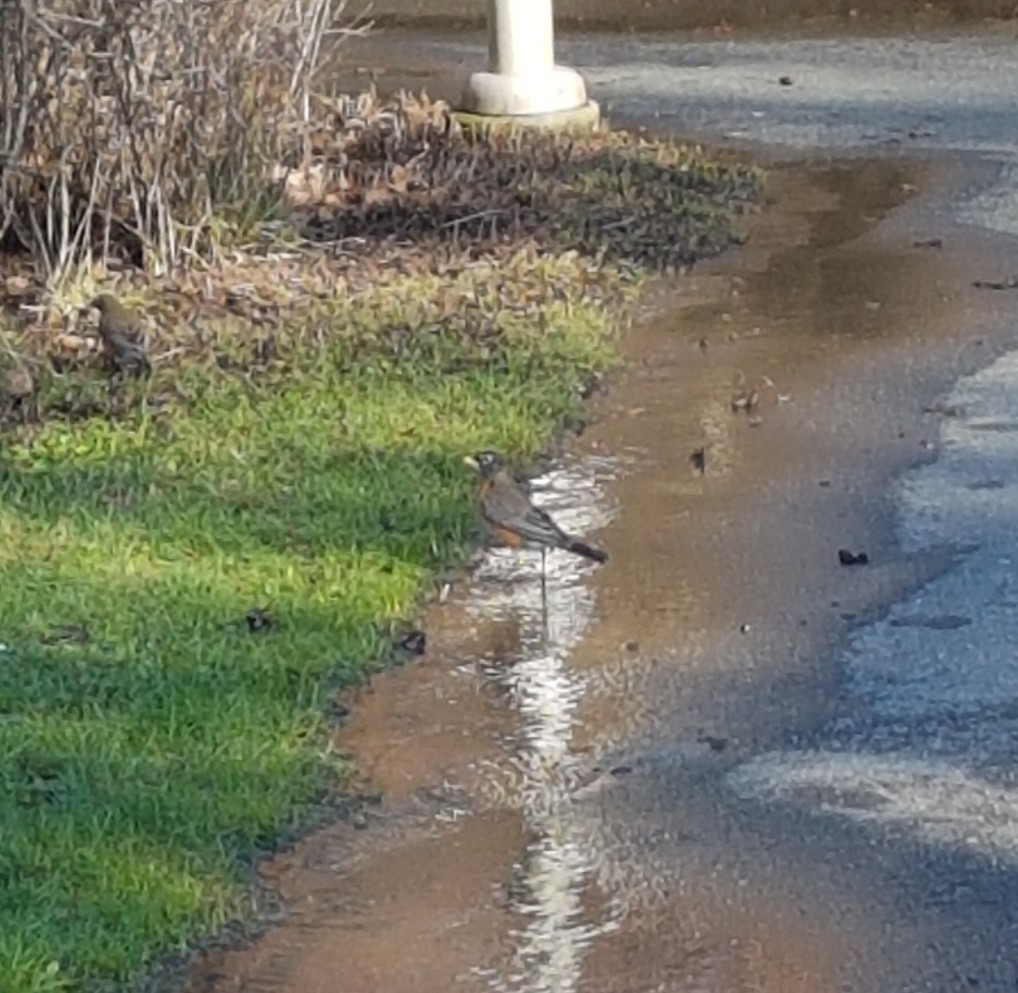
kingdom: Animalia
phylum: Chordata
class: Aves
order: Passeriformes
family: Turdidae
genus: Turdus
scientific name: Turdus migratorius
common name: American robin
